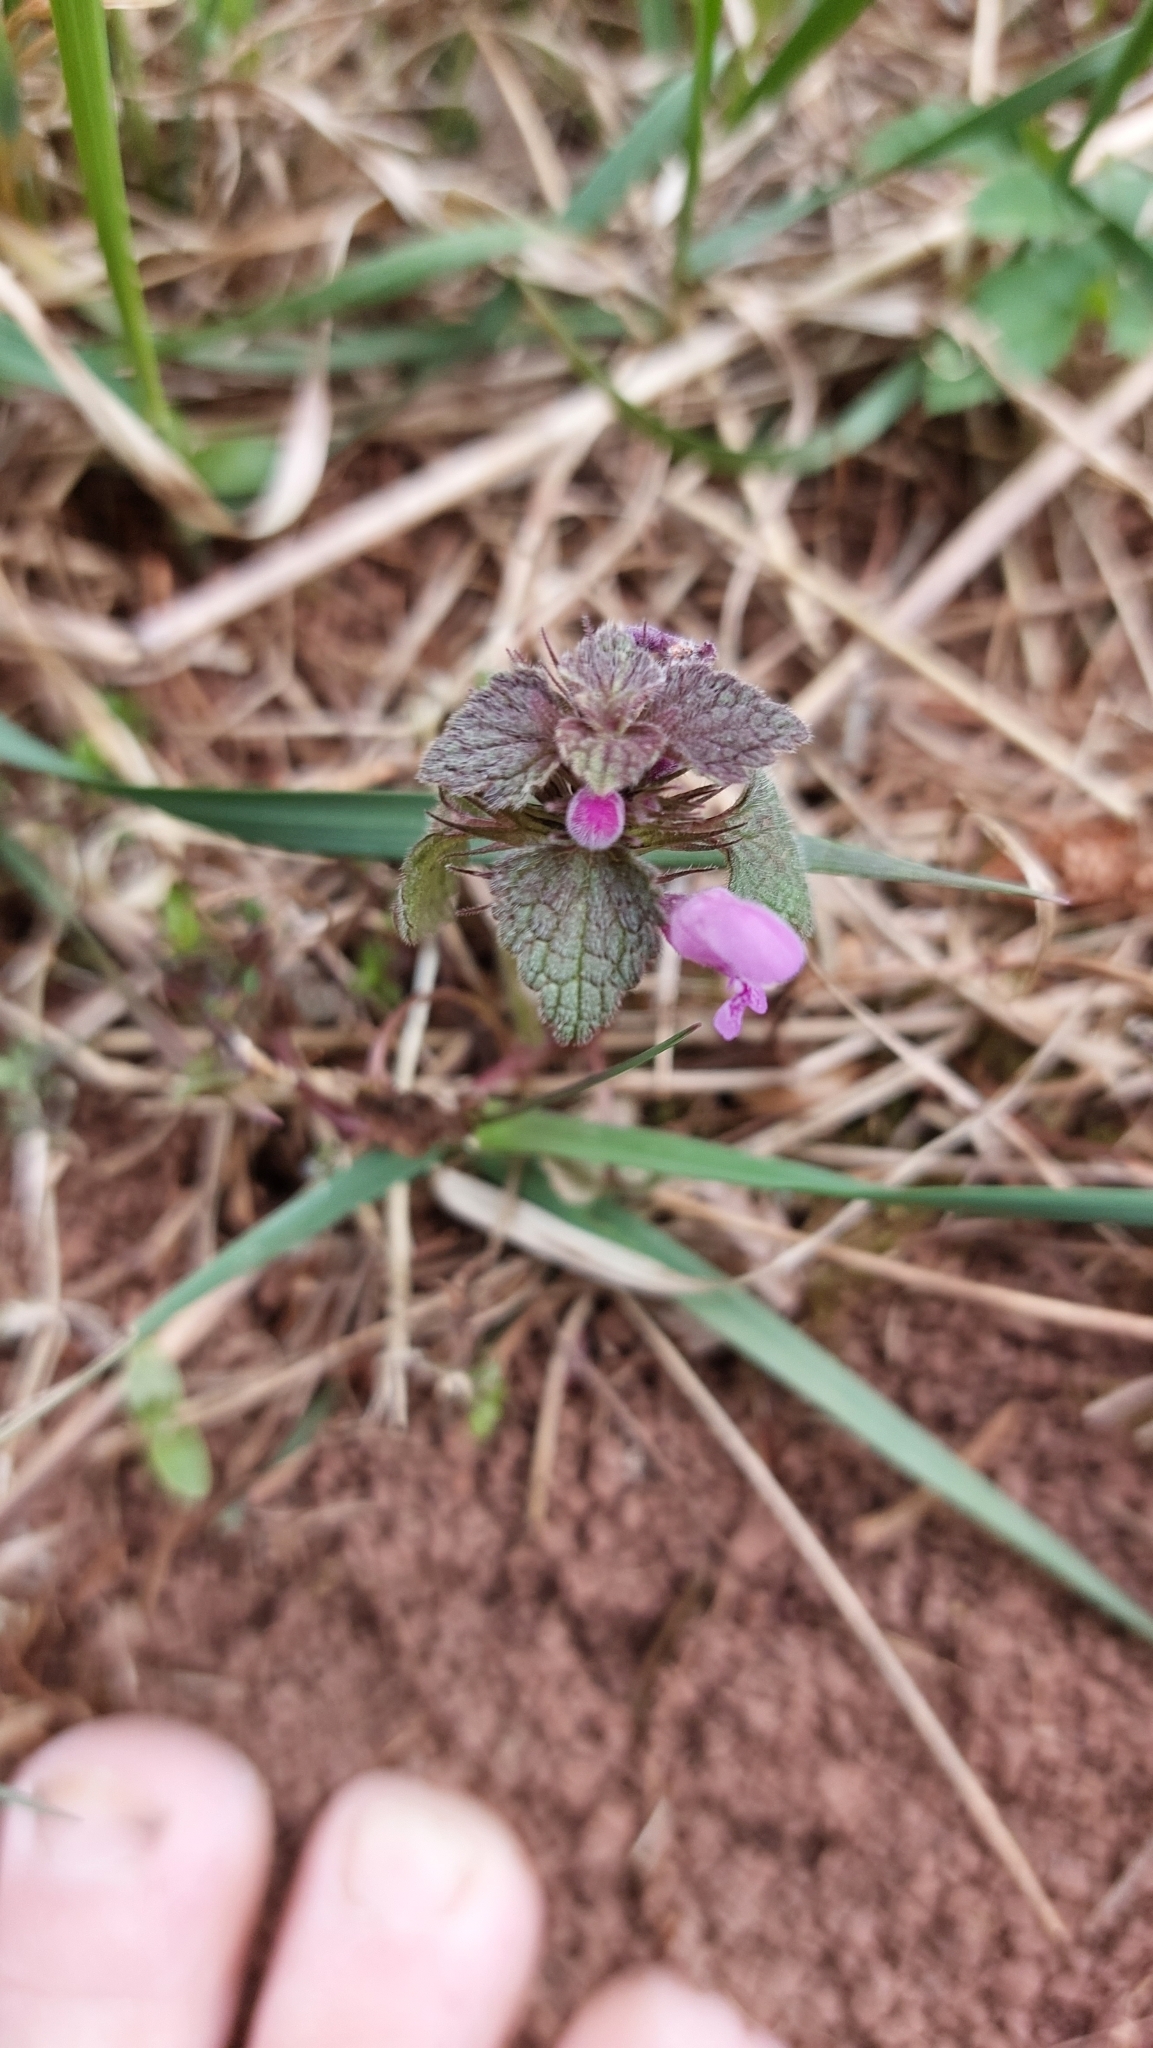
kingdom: Plantae
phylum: Tracheophyta
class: Magnoliopsida
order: Lamiales
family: Lamiaceae
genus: Lamium
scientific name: Lamium purpureum
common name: Red dead-nettle
